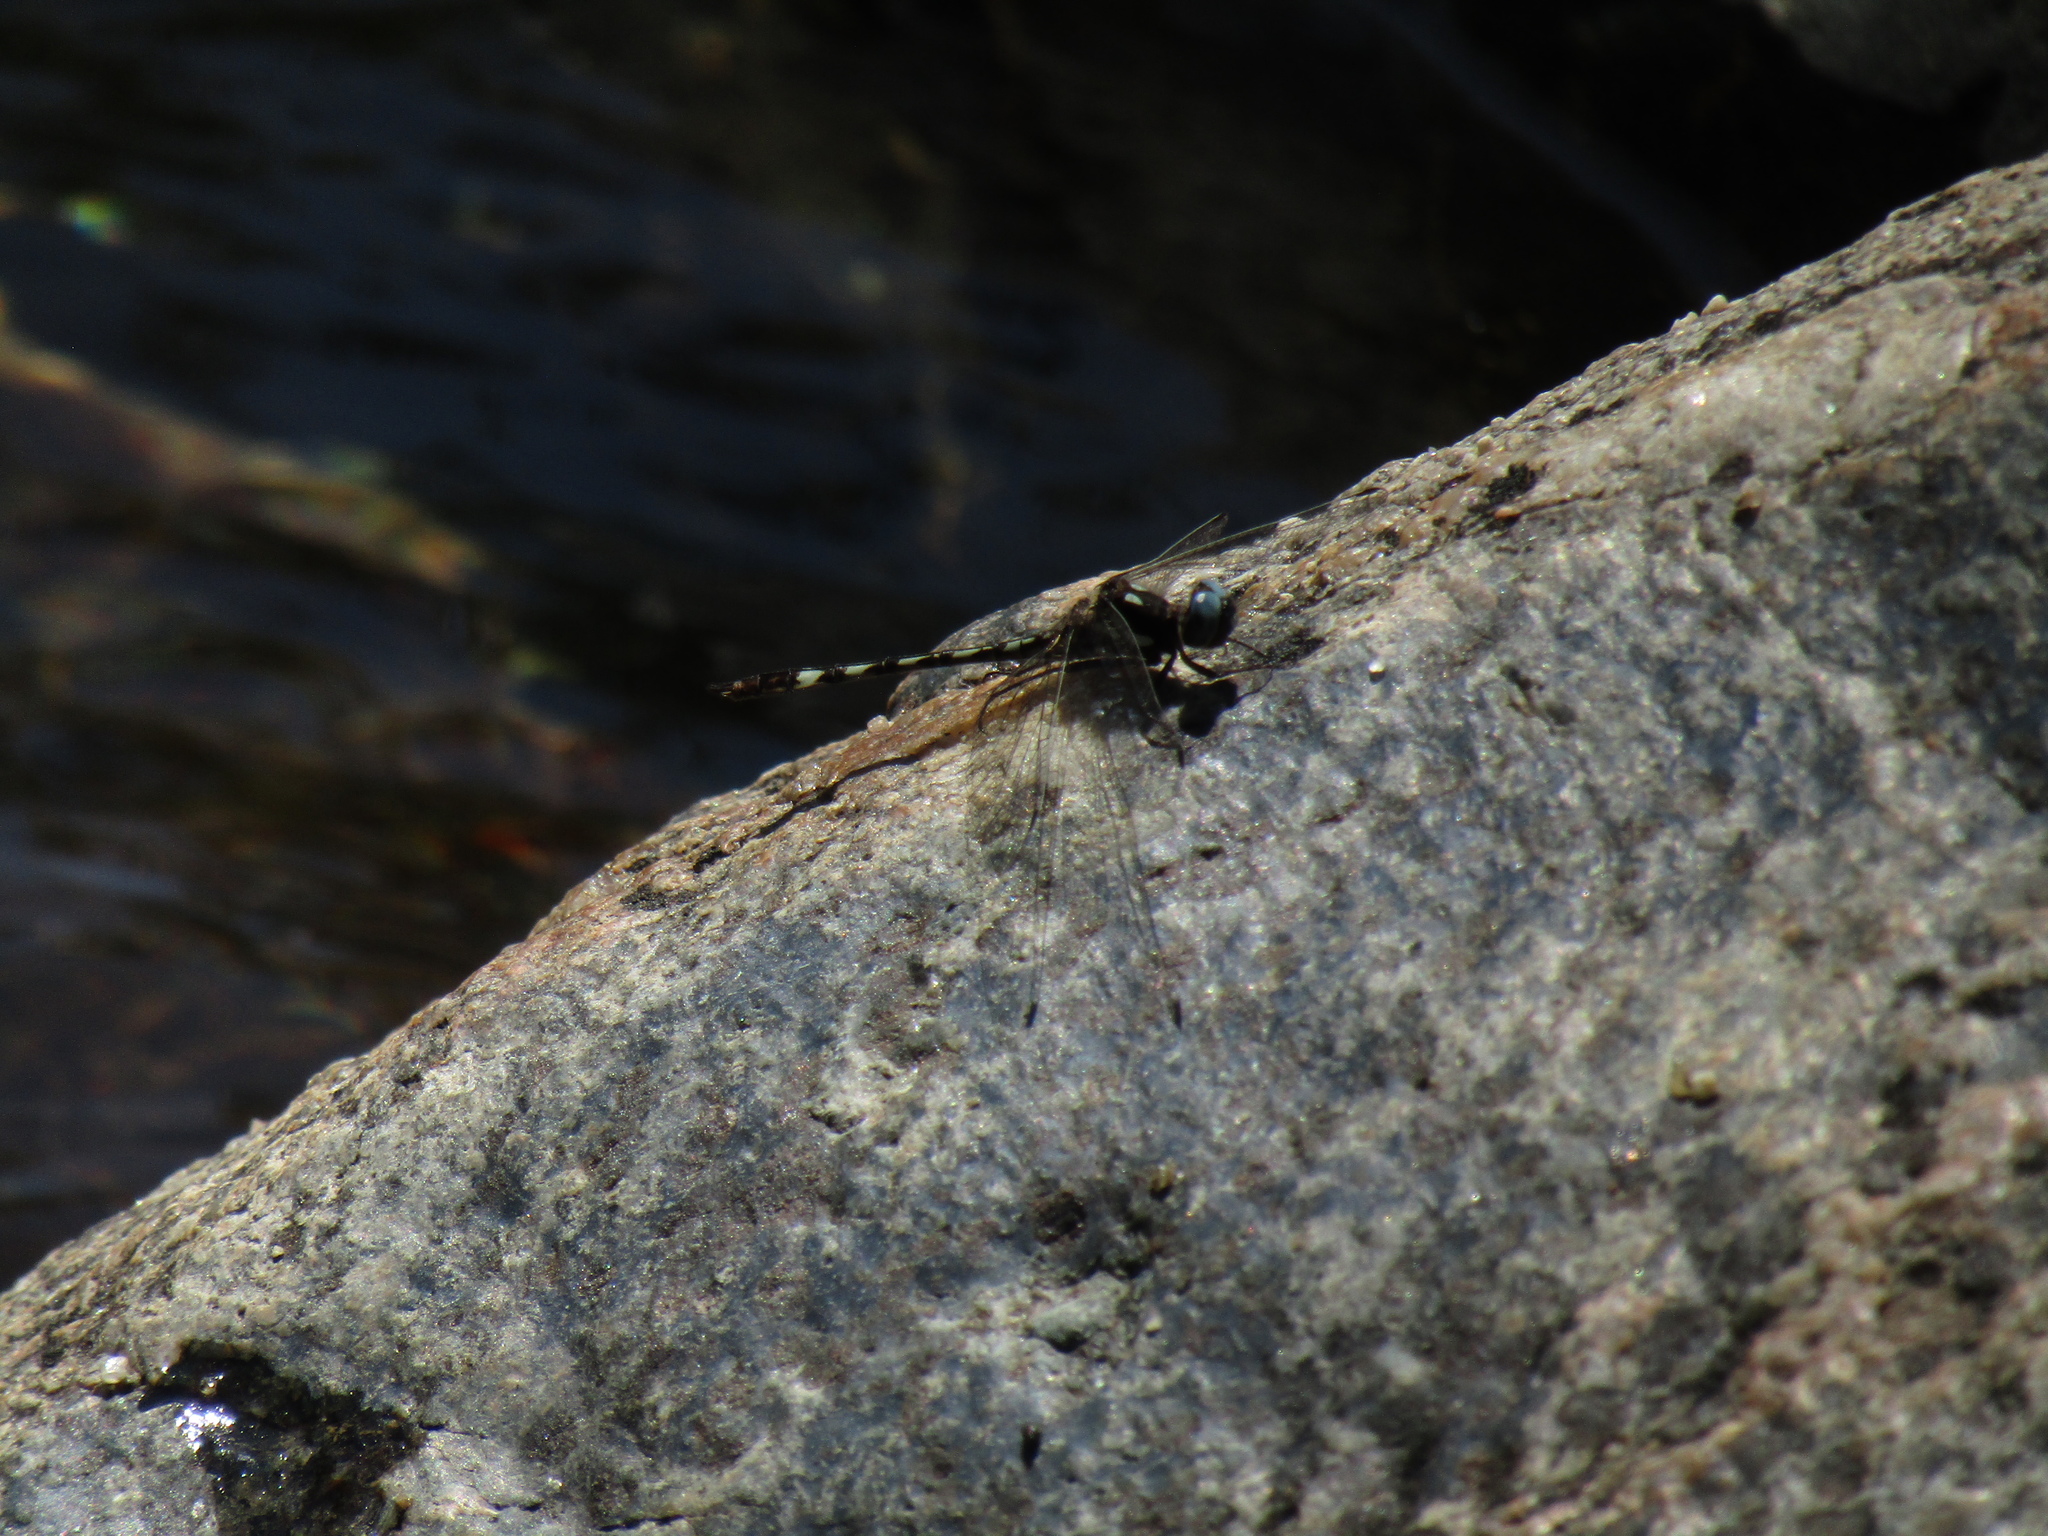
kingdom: Animalia
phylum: Arthropoda
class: Insecta
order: Odonata
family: Libellulidae
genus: Macrothemis
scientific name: Macrothemis imitans
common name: Ivory-striped sylph
